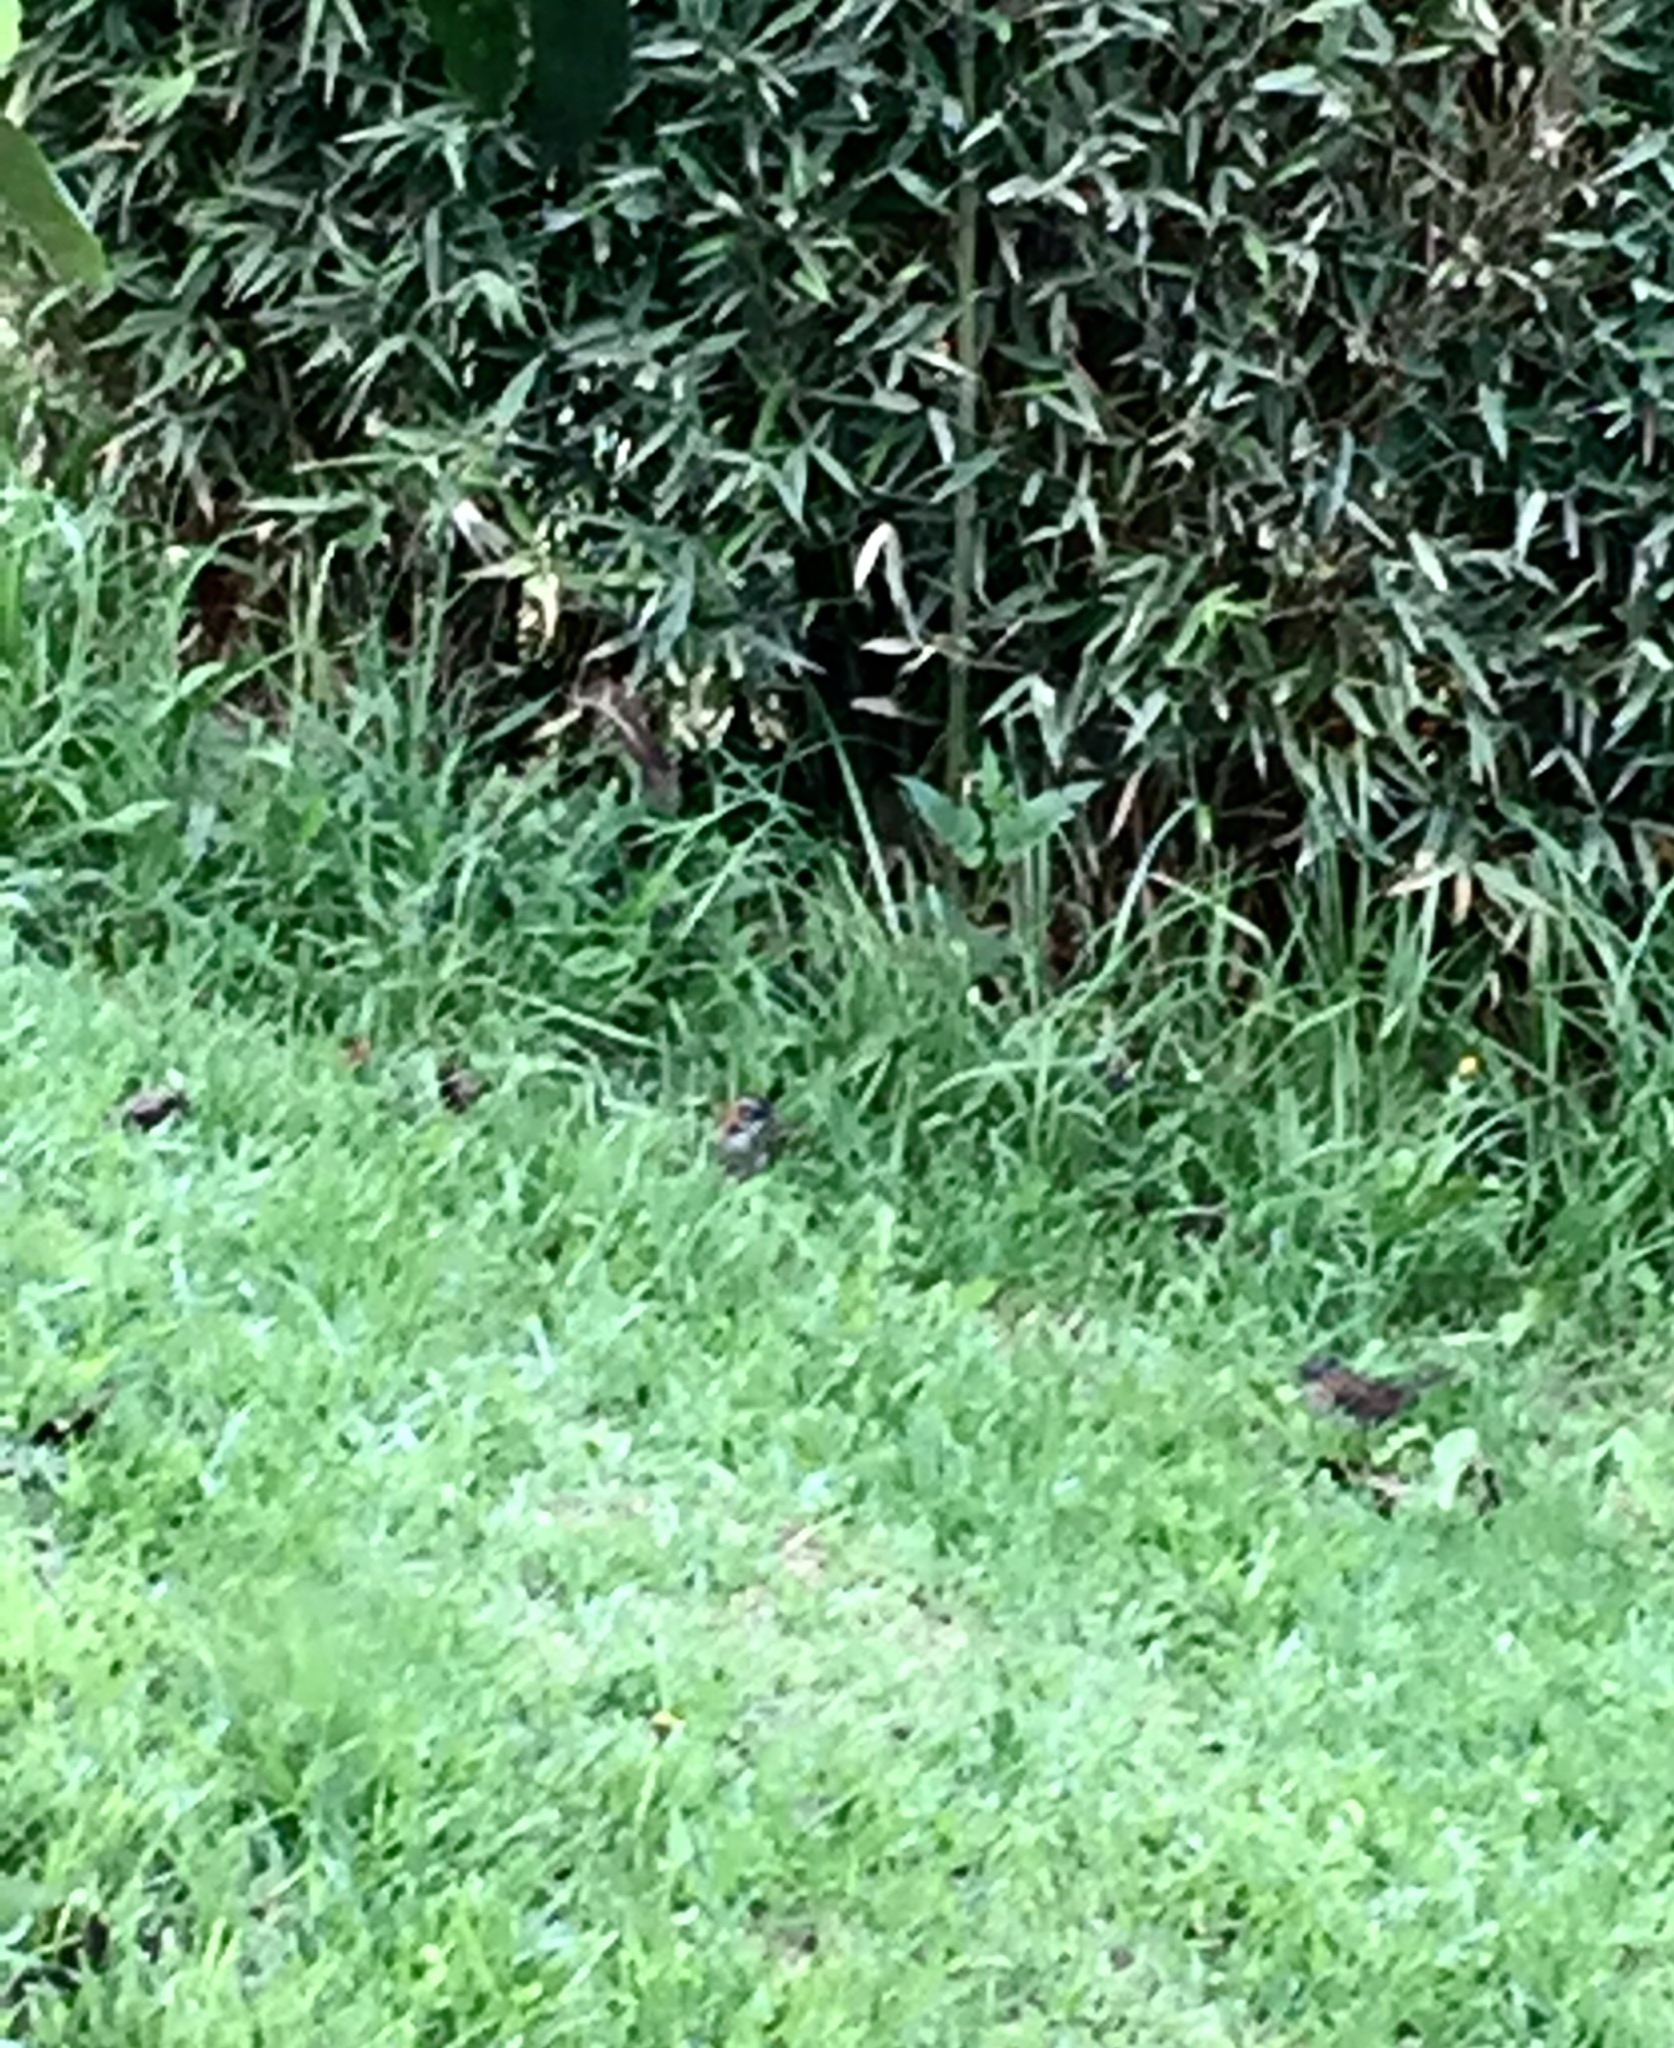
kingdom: Animalia
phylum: Chordata
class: Aves
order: Passeriformes
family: Passerellidae
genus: Zonotrichia
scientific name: Zonotrichia capensis
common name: Rufous-collared sparrow
